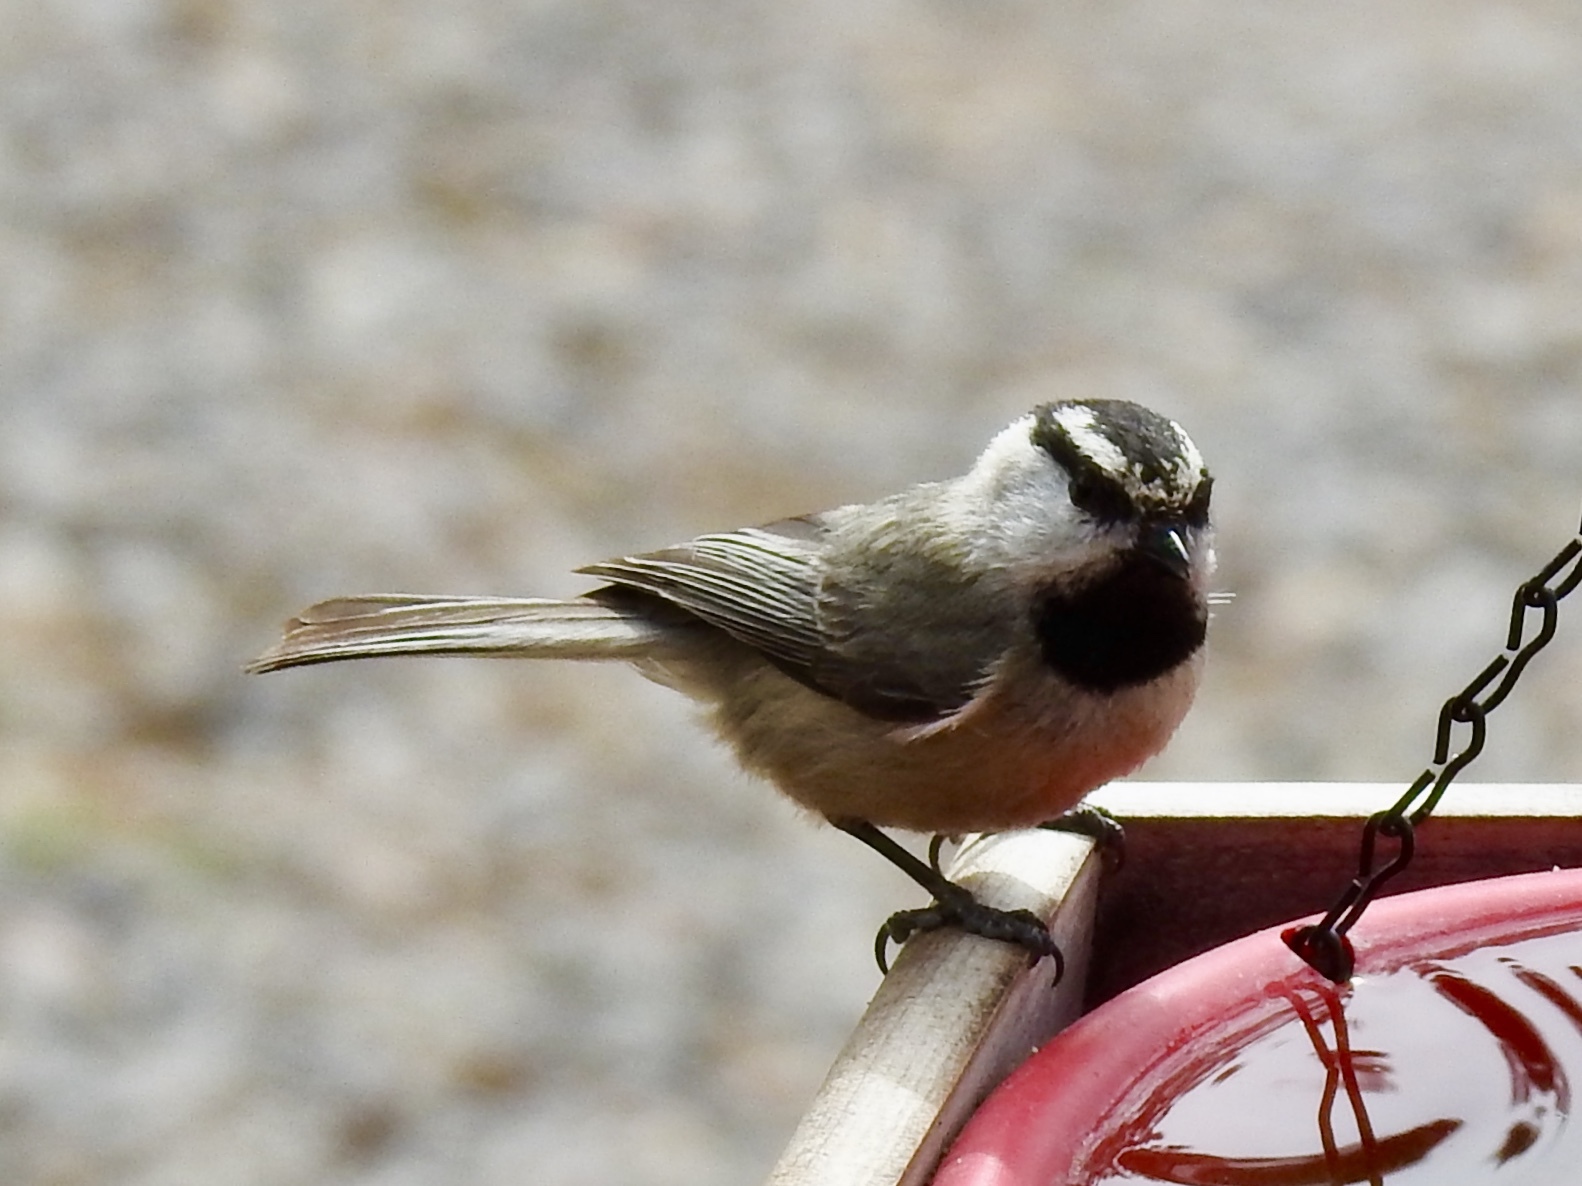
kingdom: Animalia
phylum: Chordata
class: Aves
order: Passeriformes
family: Paridae
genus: Poecile
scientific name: Poecile gambeli
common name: Mountain chickadee
